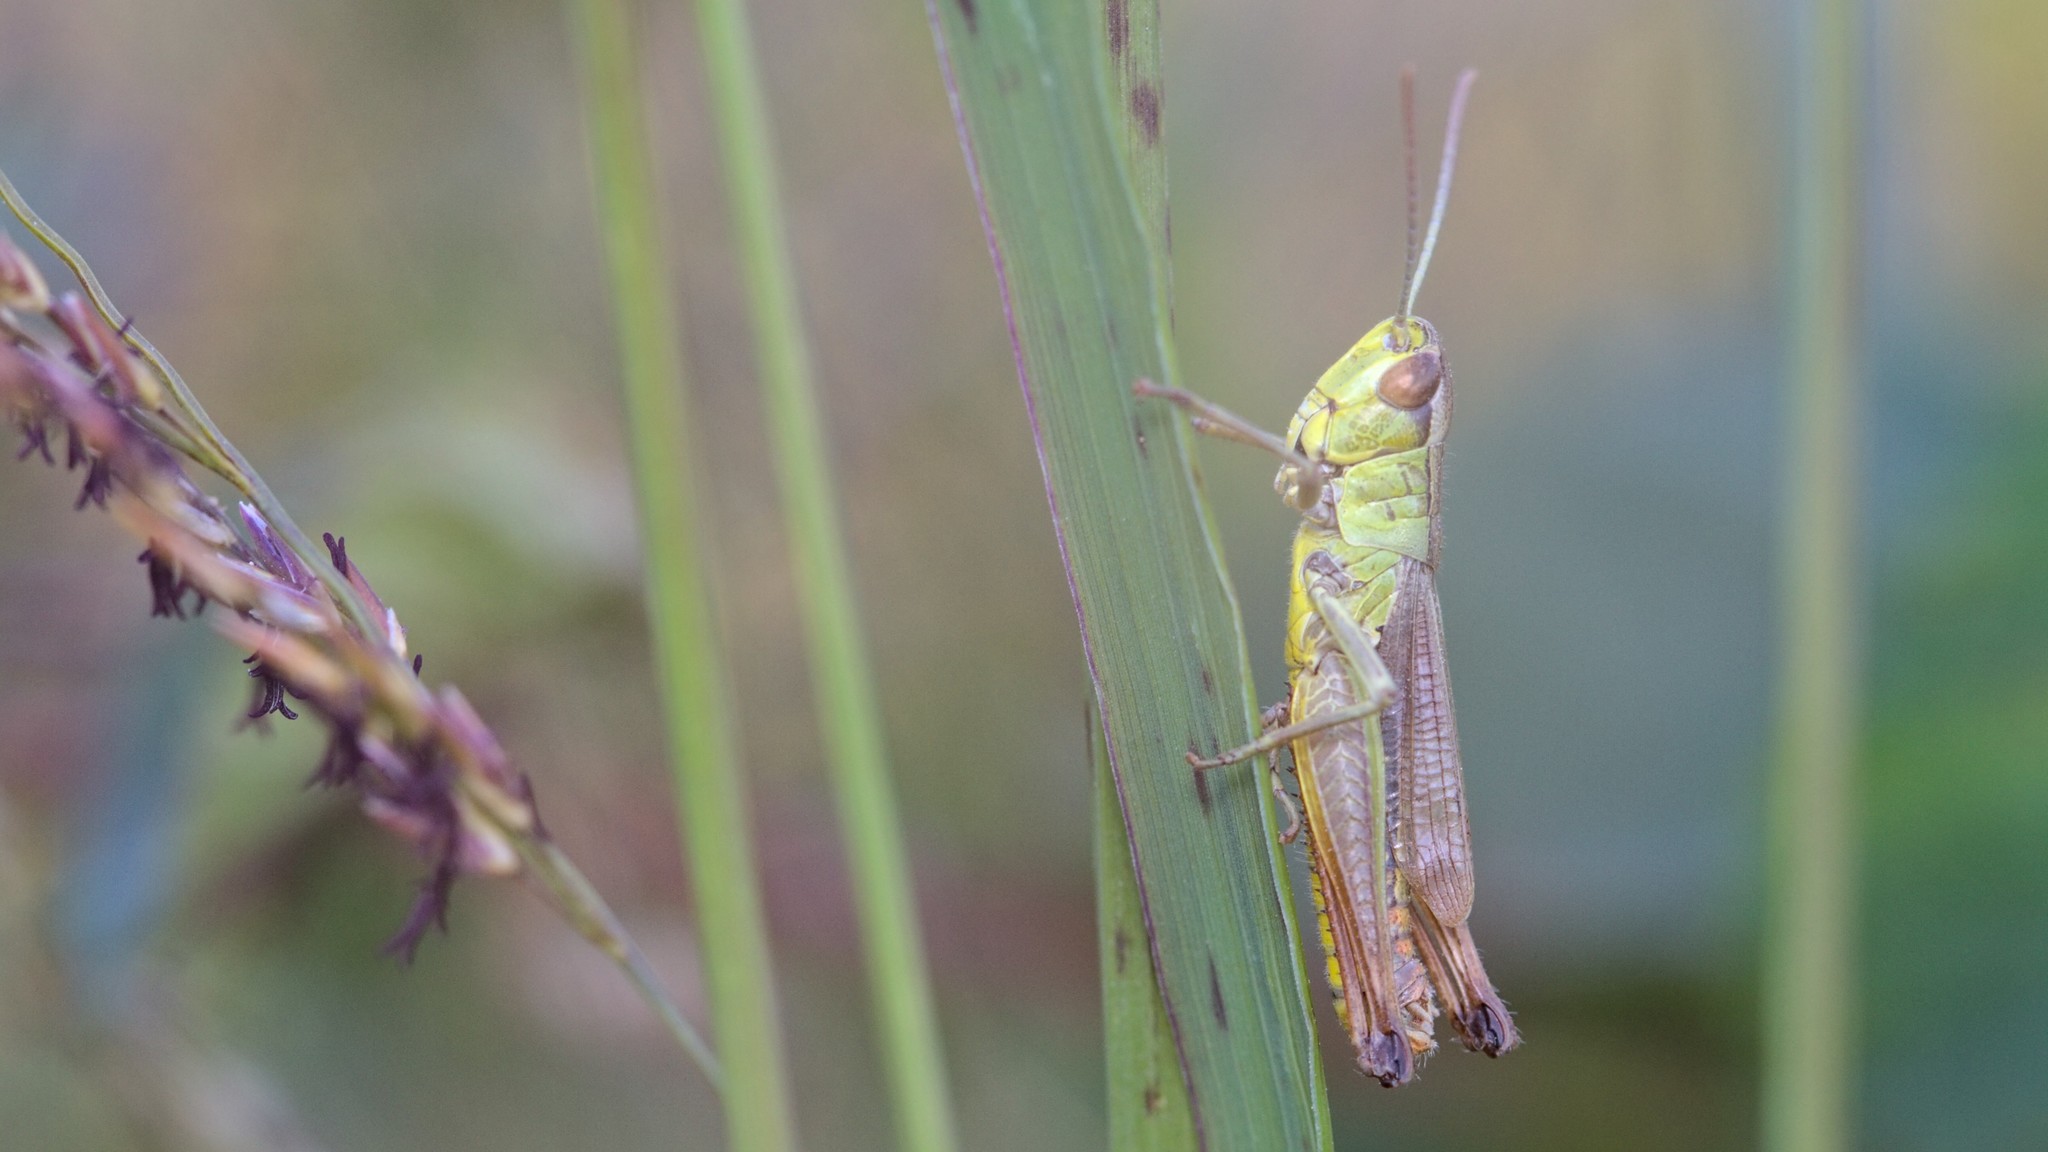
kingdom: Animalia
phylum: Arthropoda
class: Insecta
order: Orthoptera
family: Acrididae
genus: Pseudochorthippus
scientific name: Pseudochorthippus parallelus
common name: Meadow grasshopper
